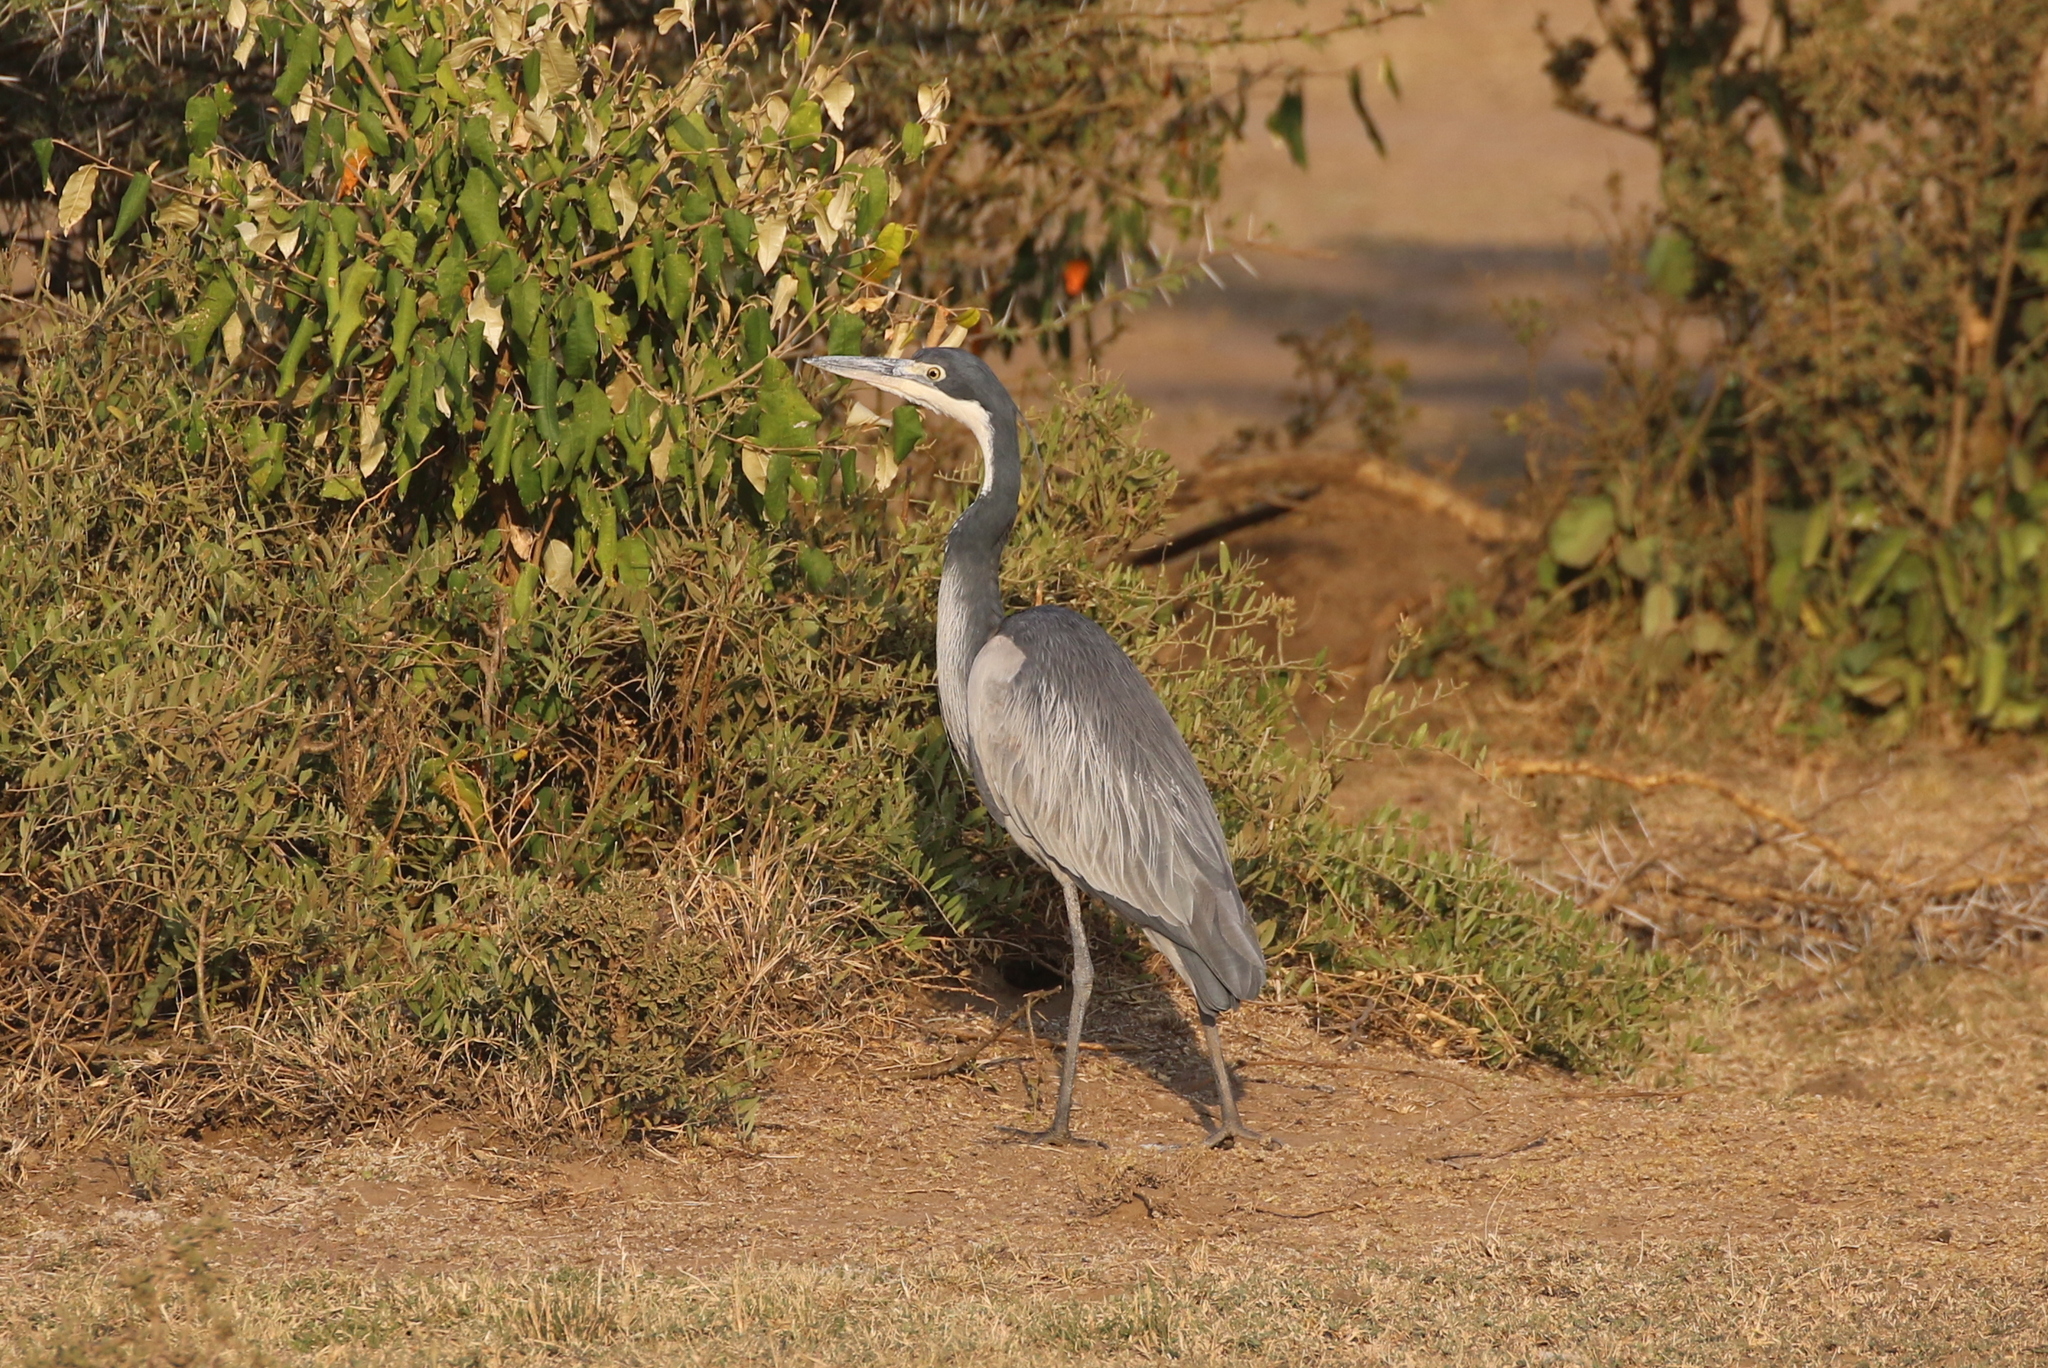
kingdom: Animalia
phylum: Chordata
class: Aves
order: Pelecaniformes
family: Ardeidae
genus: Ardea
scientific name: Ardea melanocephala
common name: Black-headed heron
